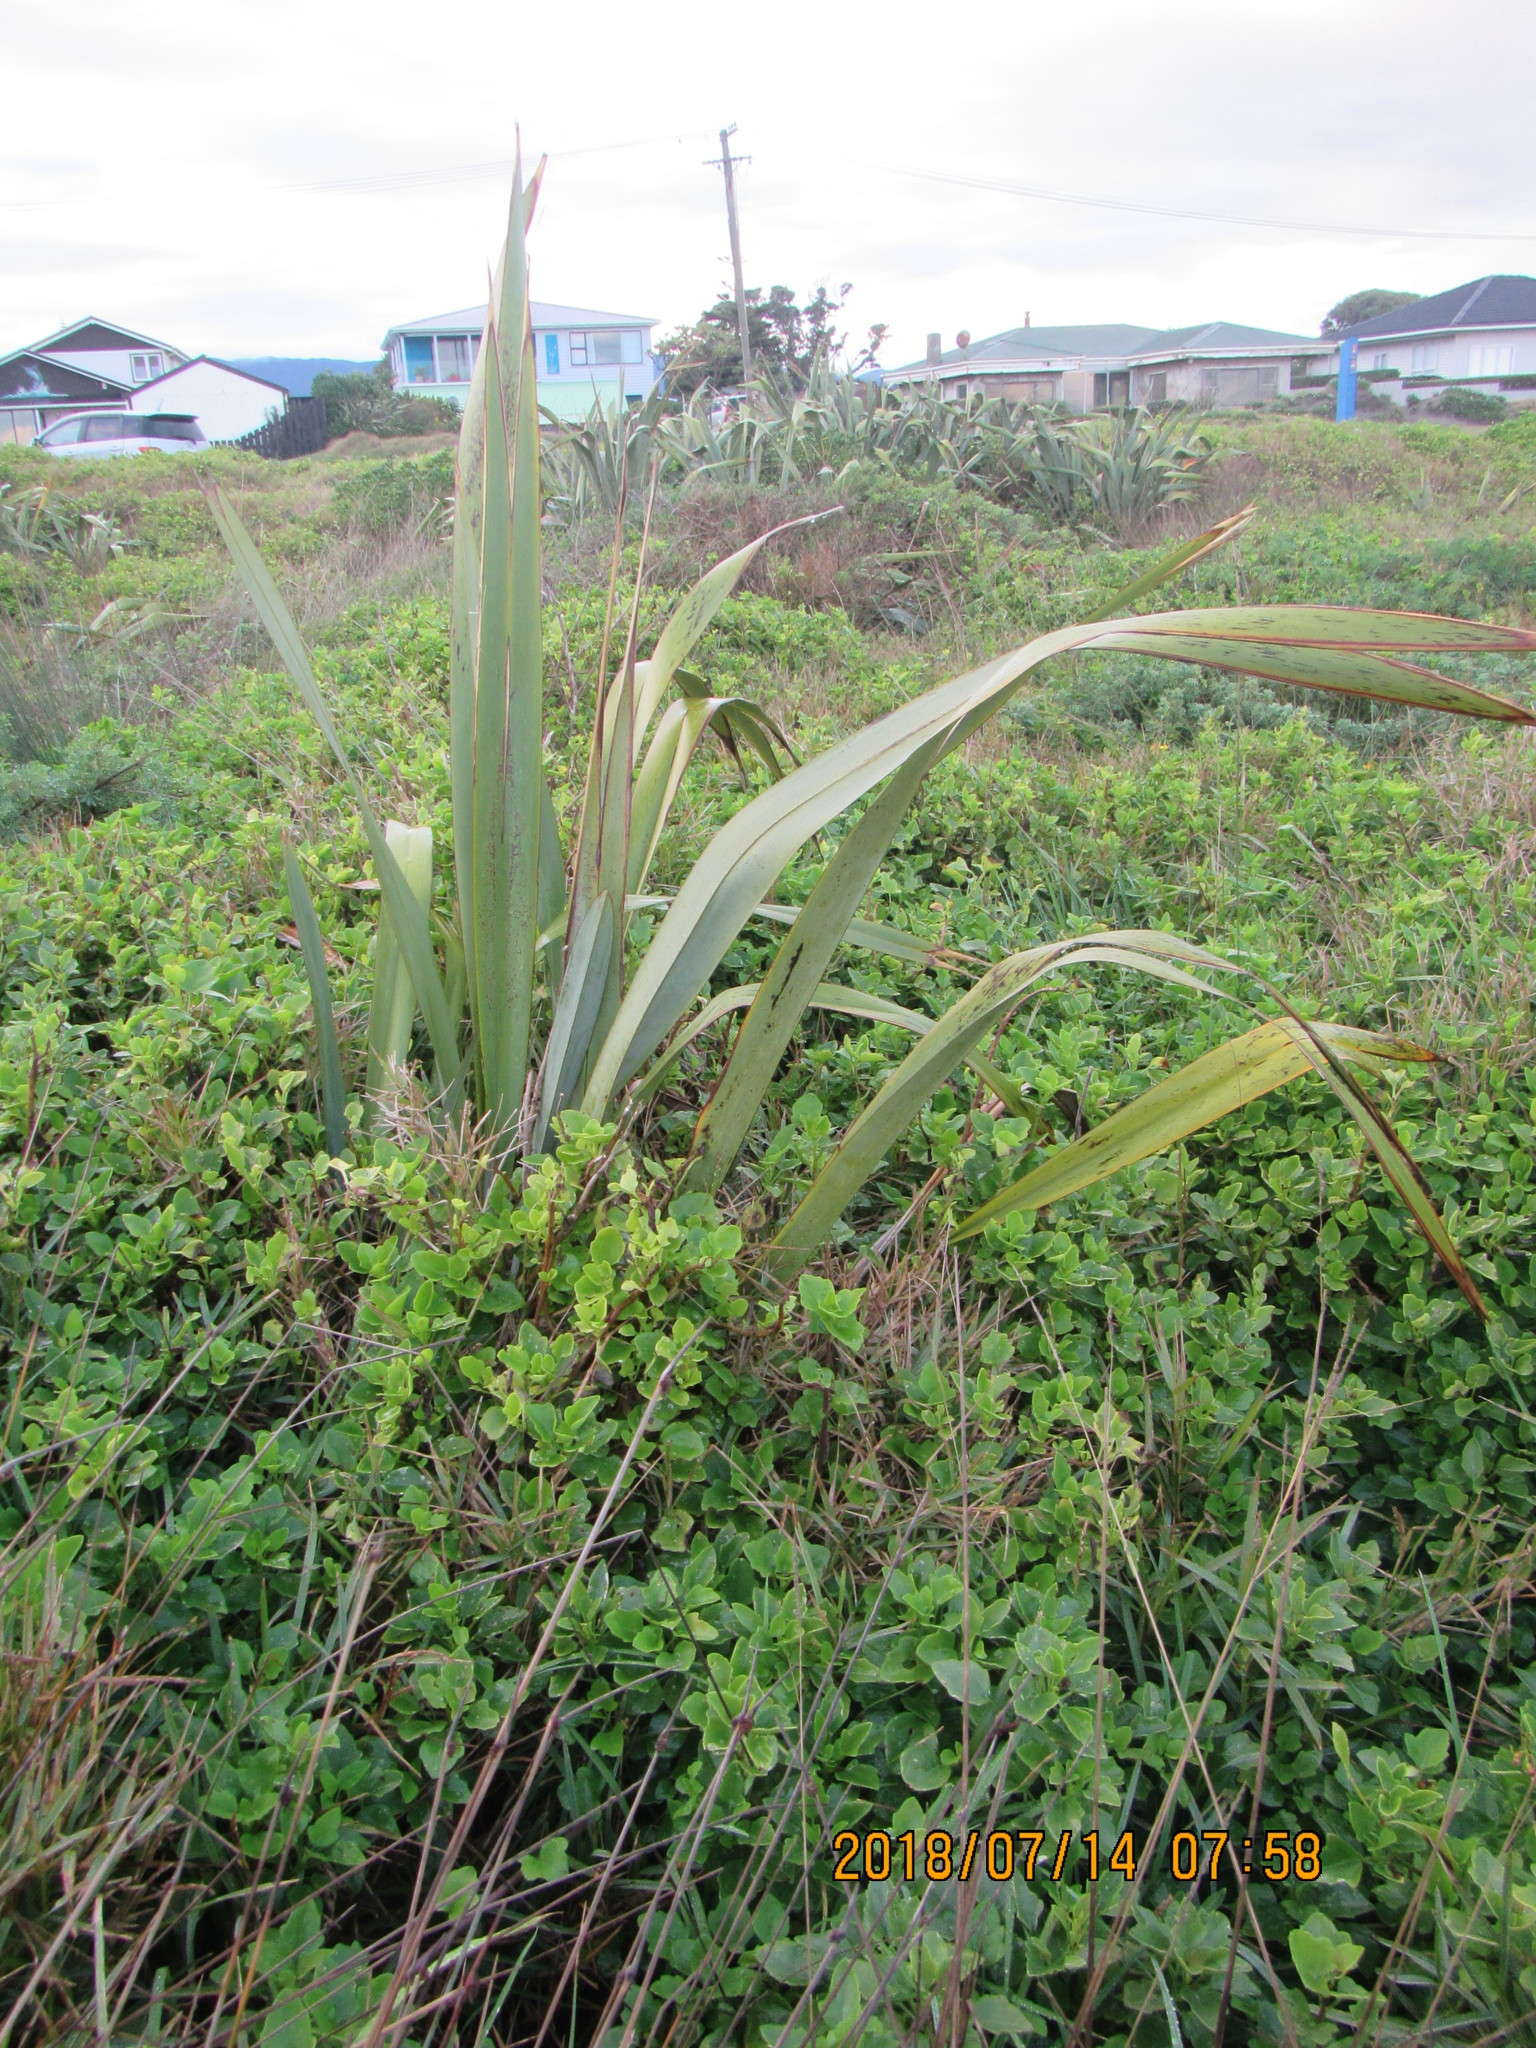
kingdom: Plantae
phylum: Tracheophyta
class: Liliopsida
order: Asparagales
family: Asphodelaceae
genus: Phormium
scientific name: Phormium tenax
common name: New zealand flax
